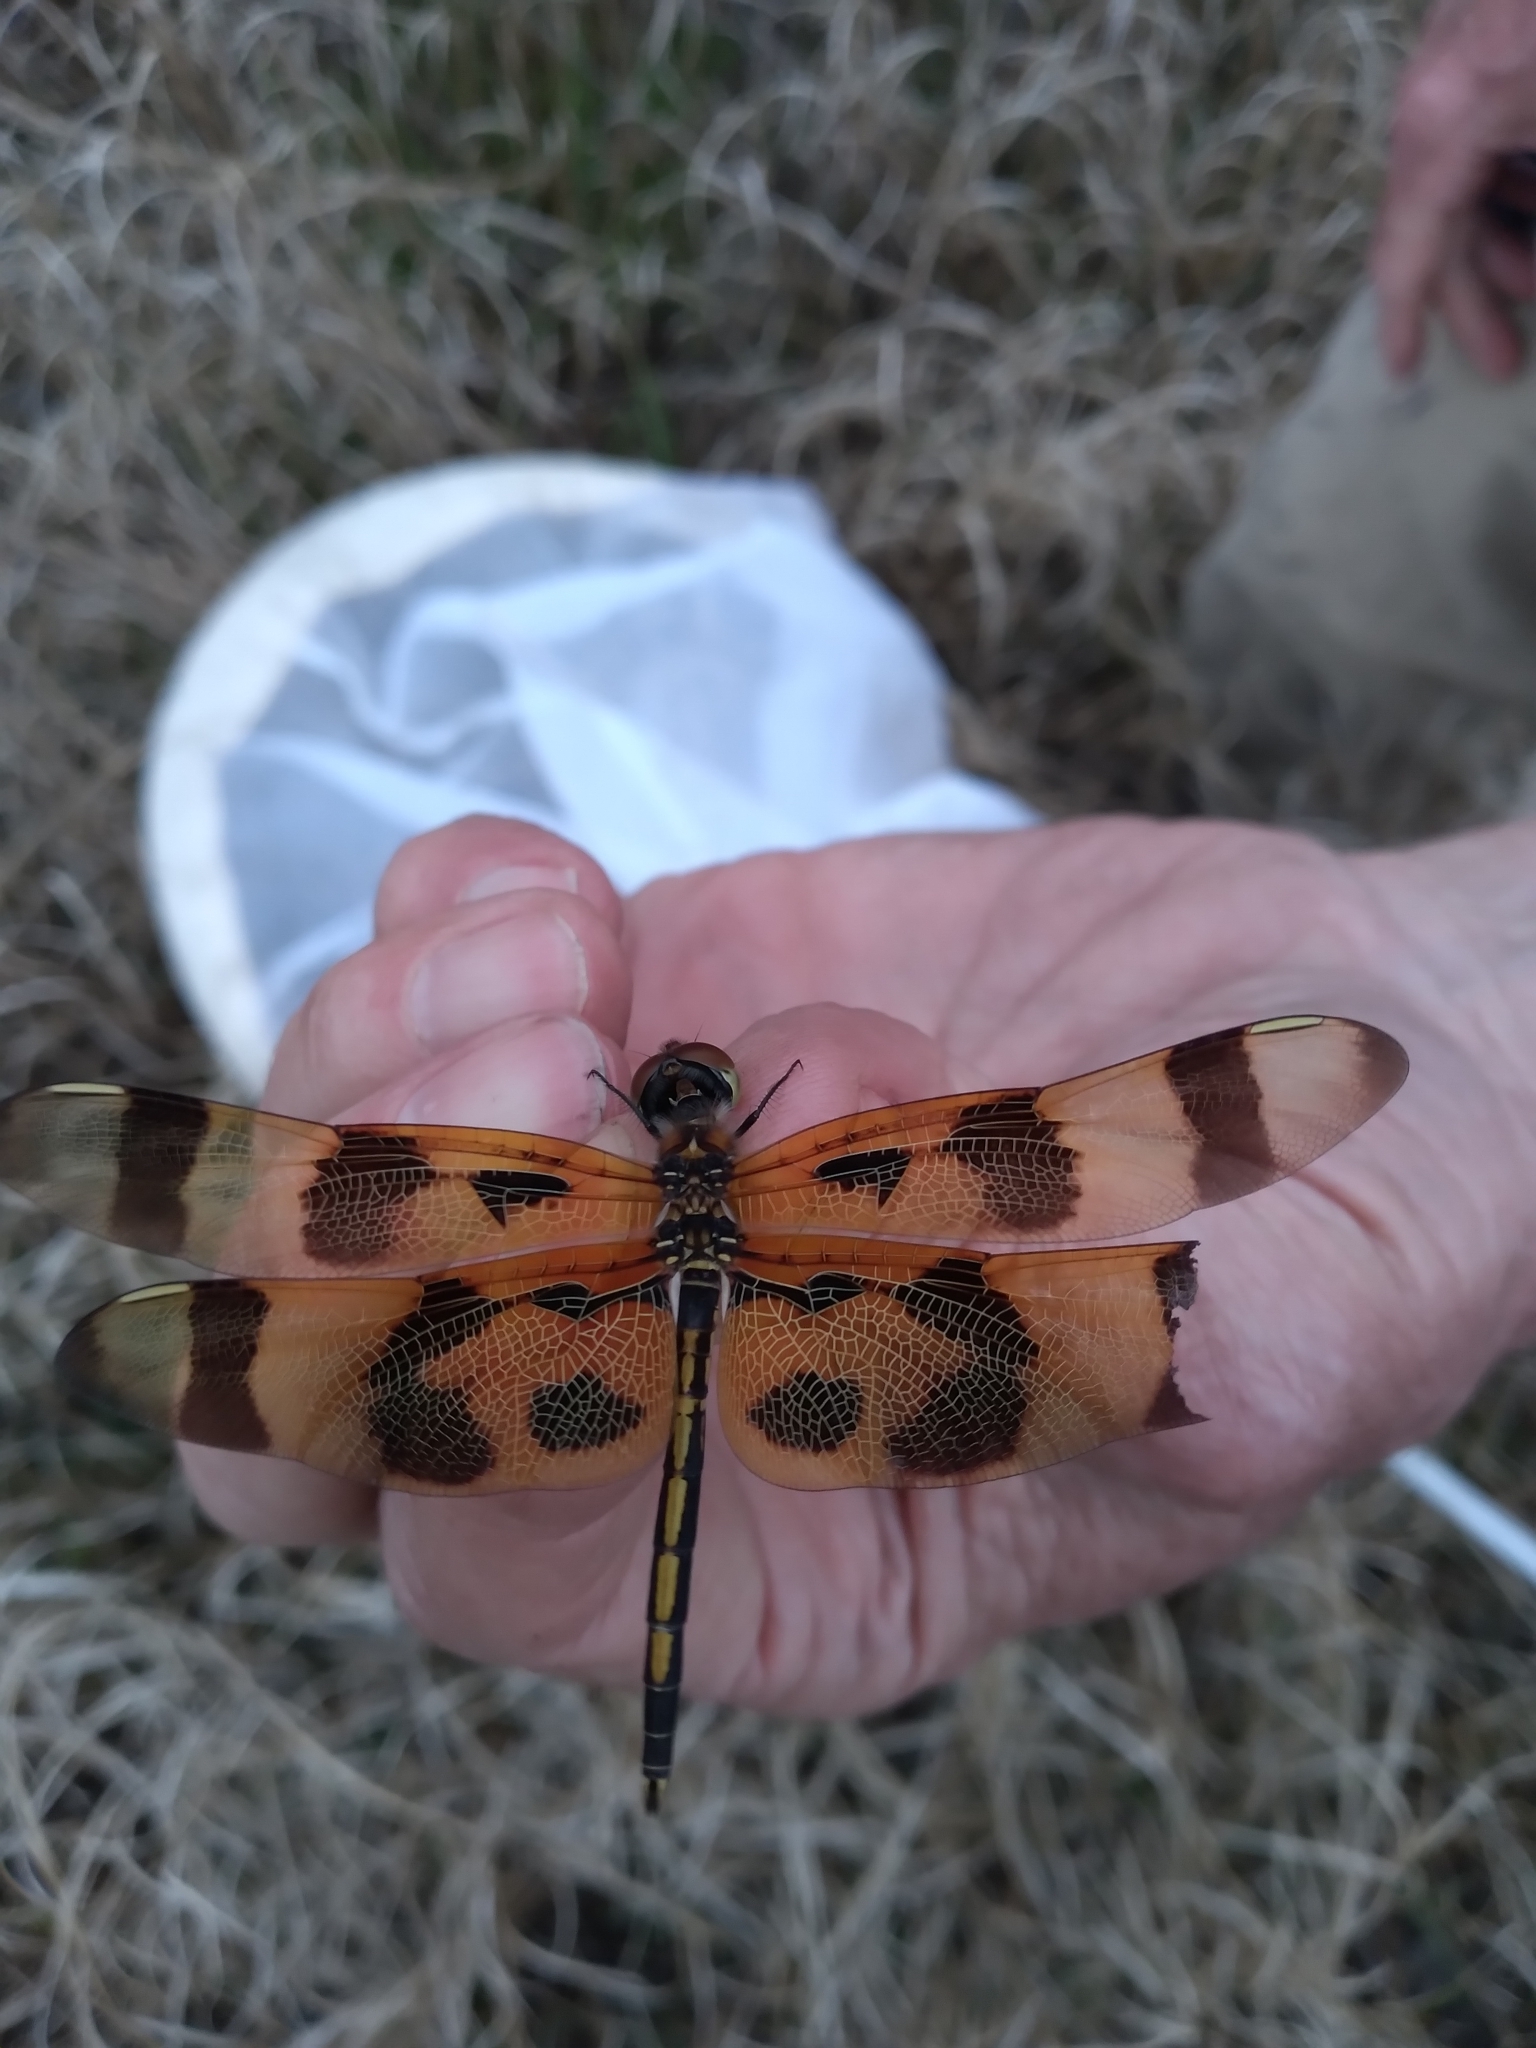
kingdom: Animalia
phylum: Arthropoda
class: Insecta
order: Odonata
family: Libellulidae
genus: Celithemis
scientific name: Celithemis eponina
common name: Halloween pennant
